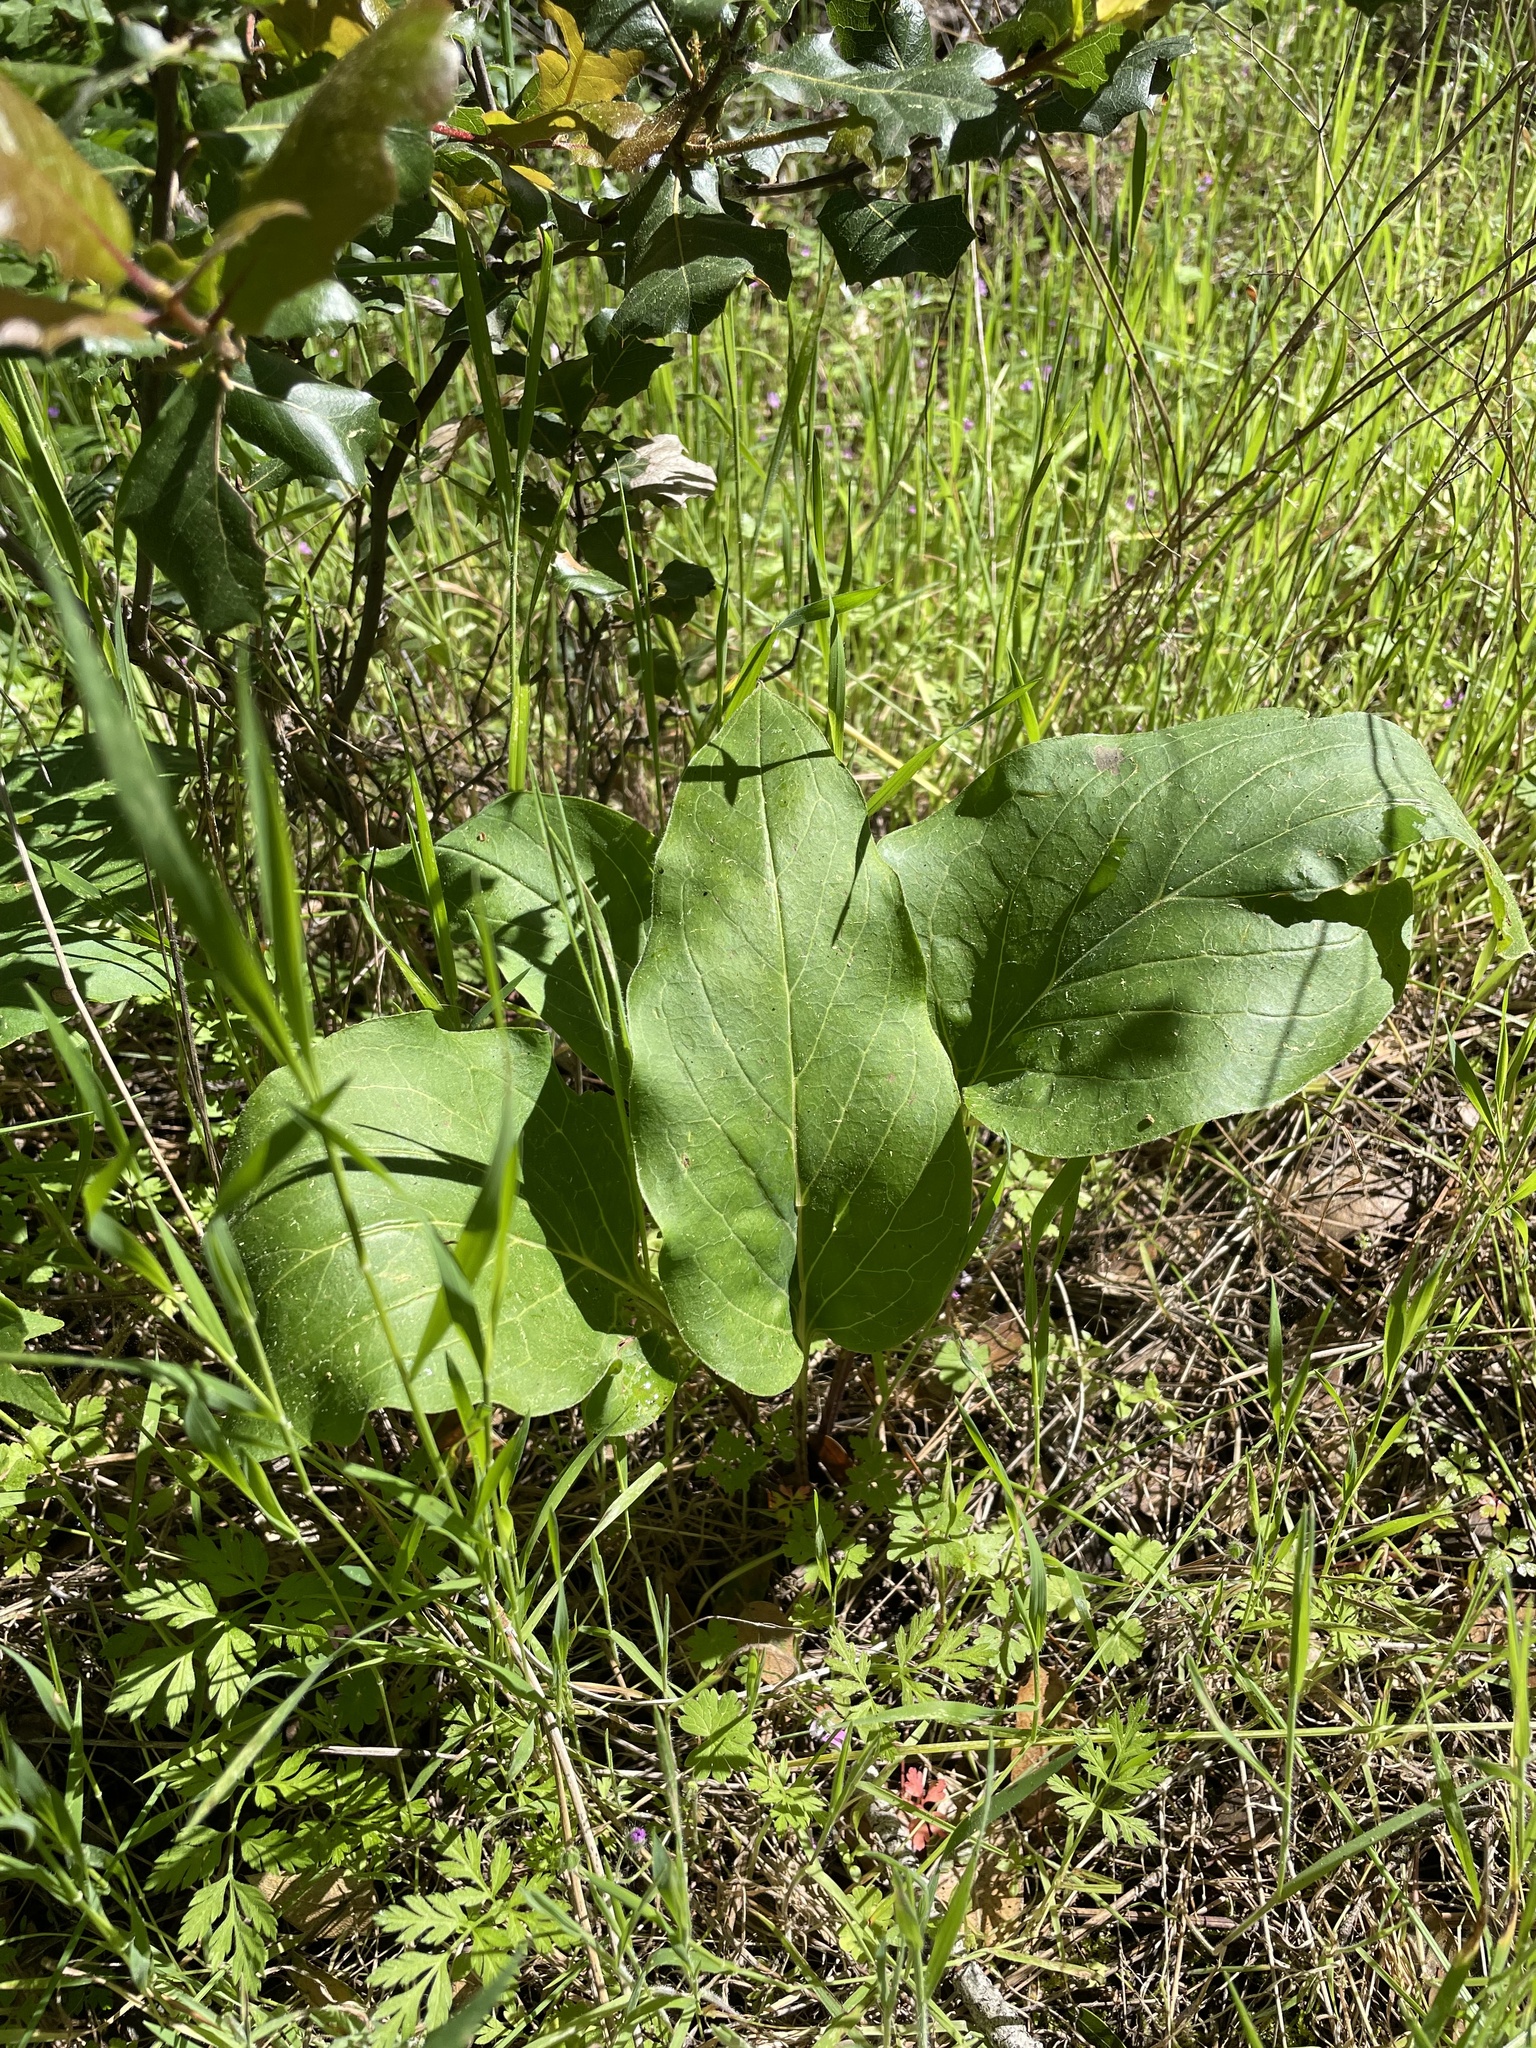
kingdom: Plantae
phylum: Tracheophyta
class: Magnoliopsida
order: Boraginales
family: Boraginaceae
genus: Adelinia
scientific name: Adelinia grande
